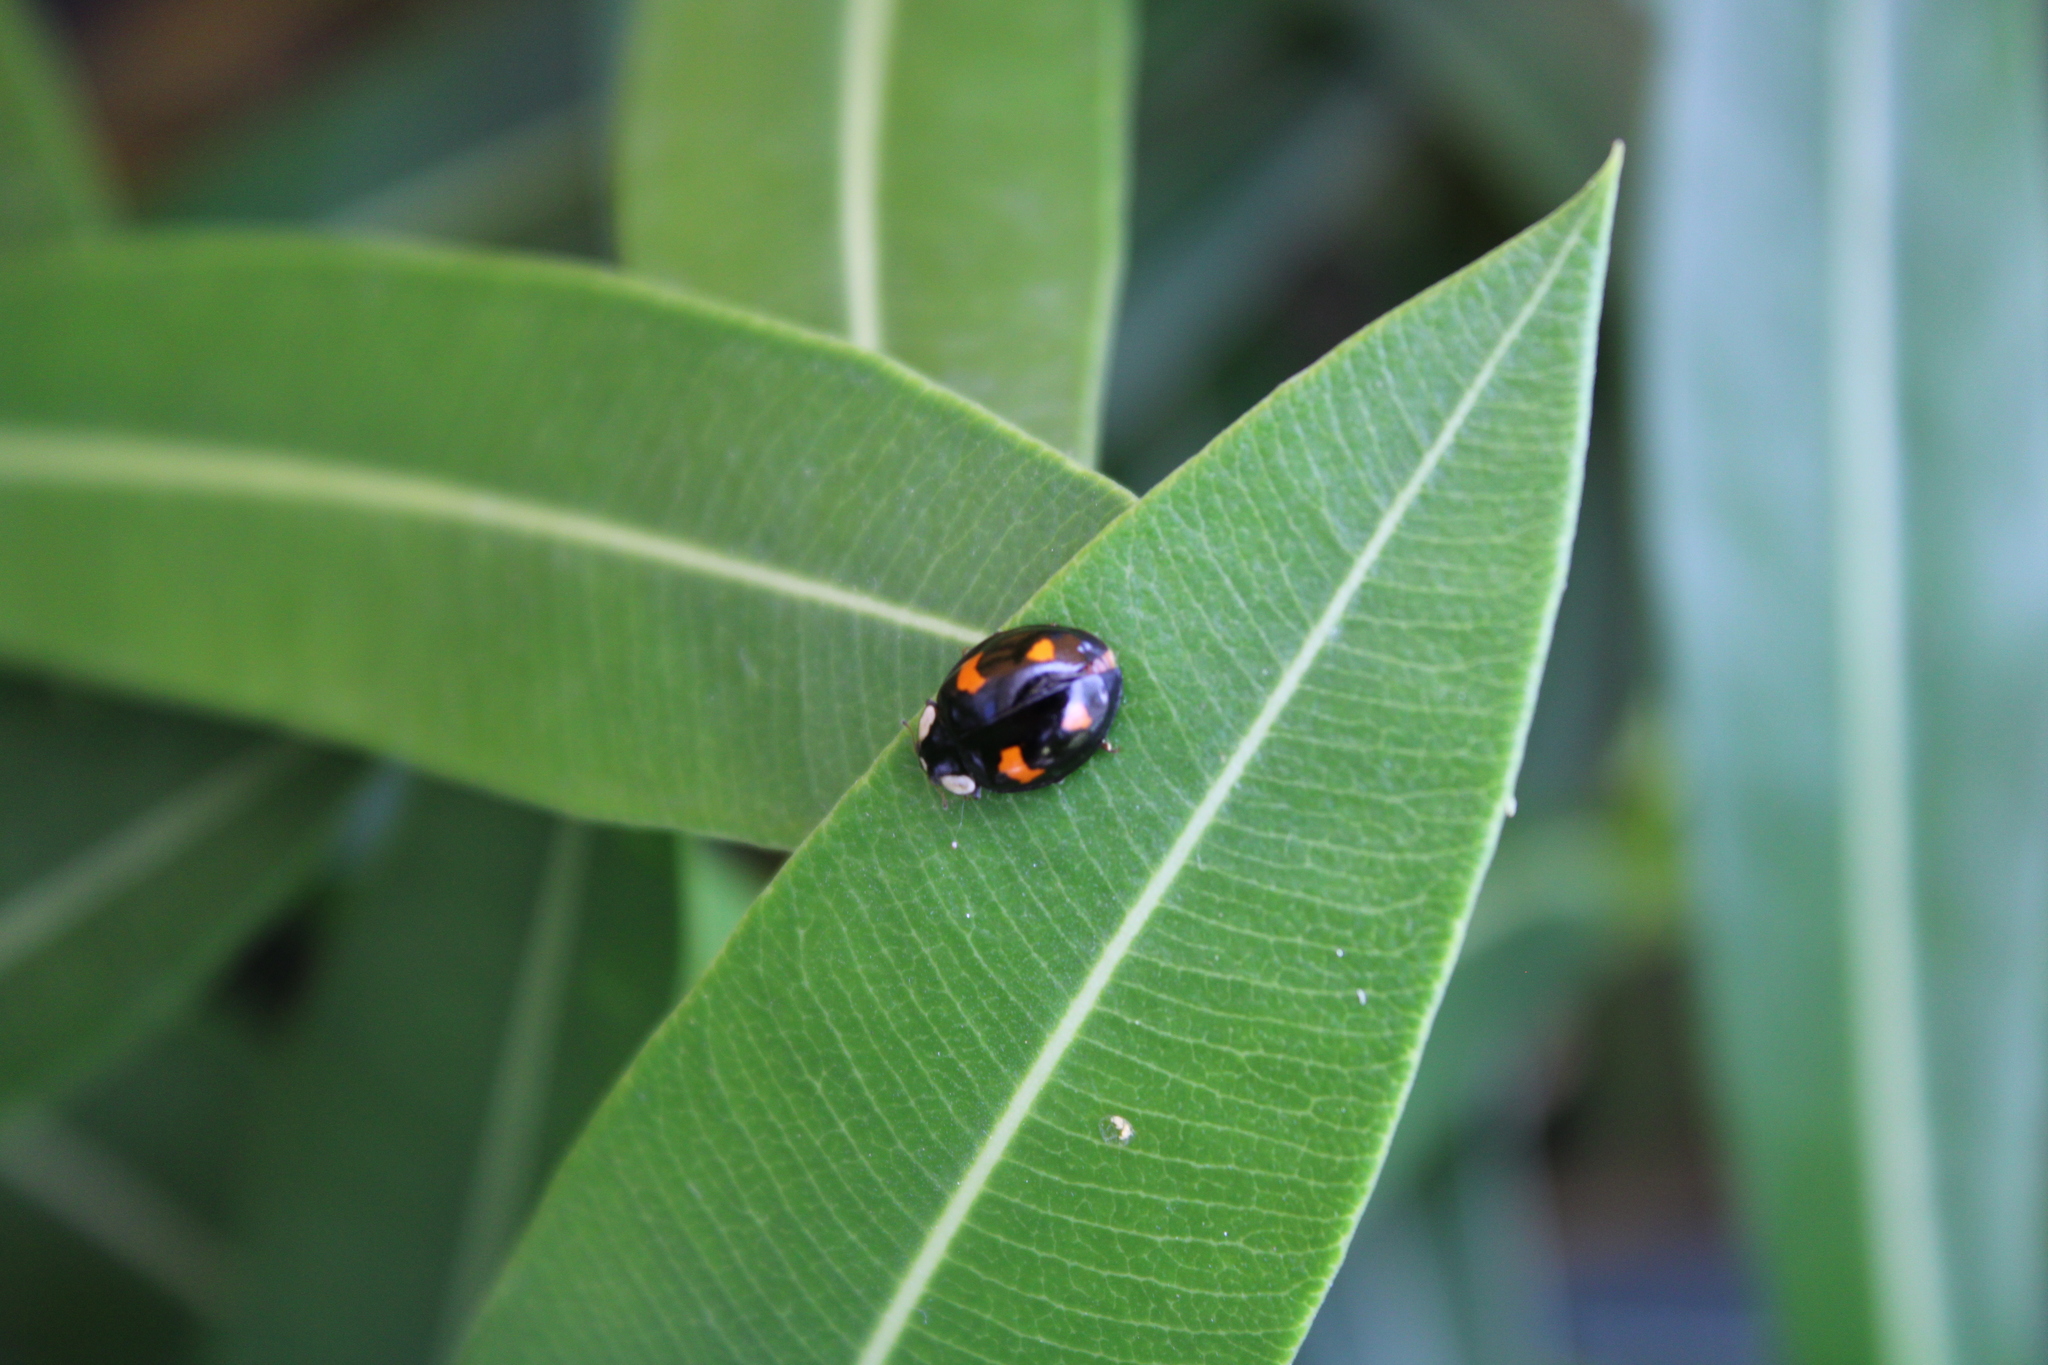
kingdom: Animalia
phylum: Arthropoda
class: Insecta
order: Coleoptera
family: Coccinellidae
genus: Harmonia
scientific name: Harmonia axyridis
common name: Harlequin ladybird
